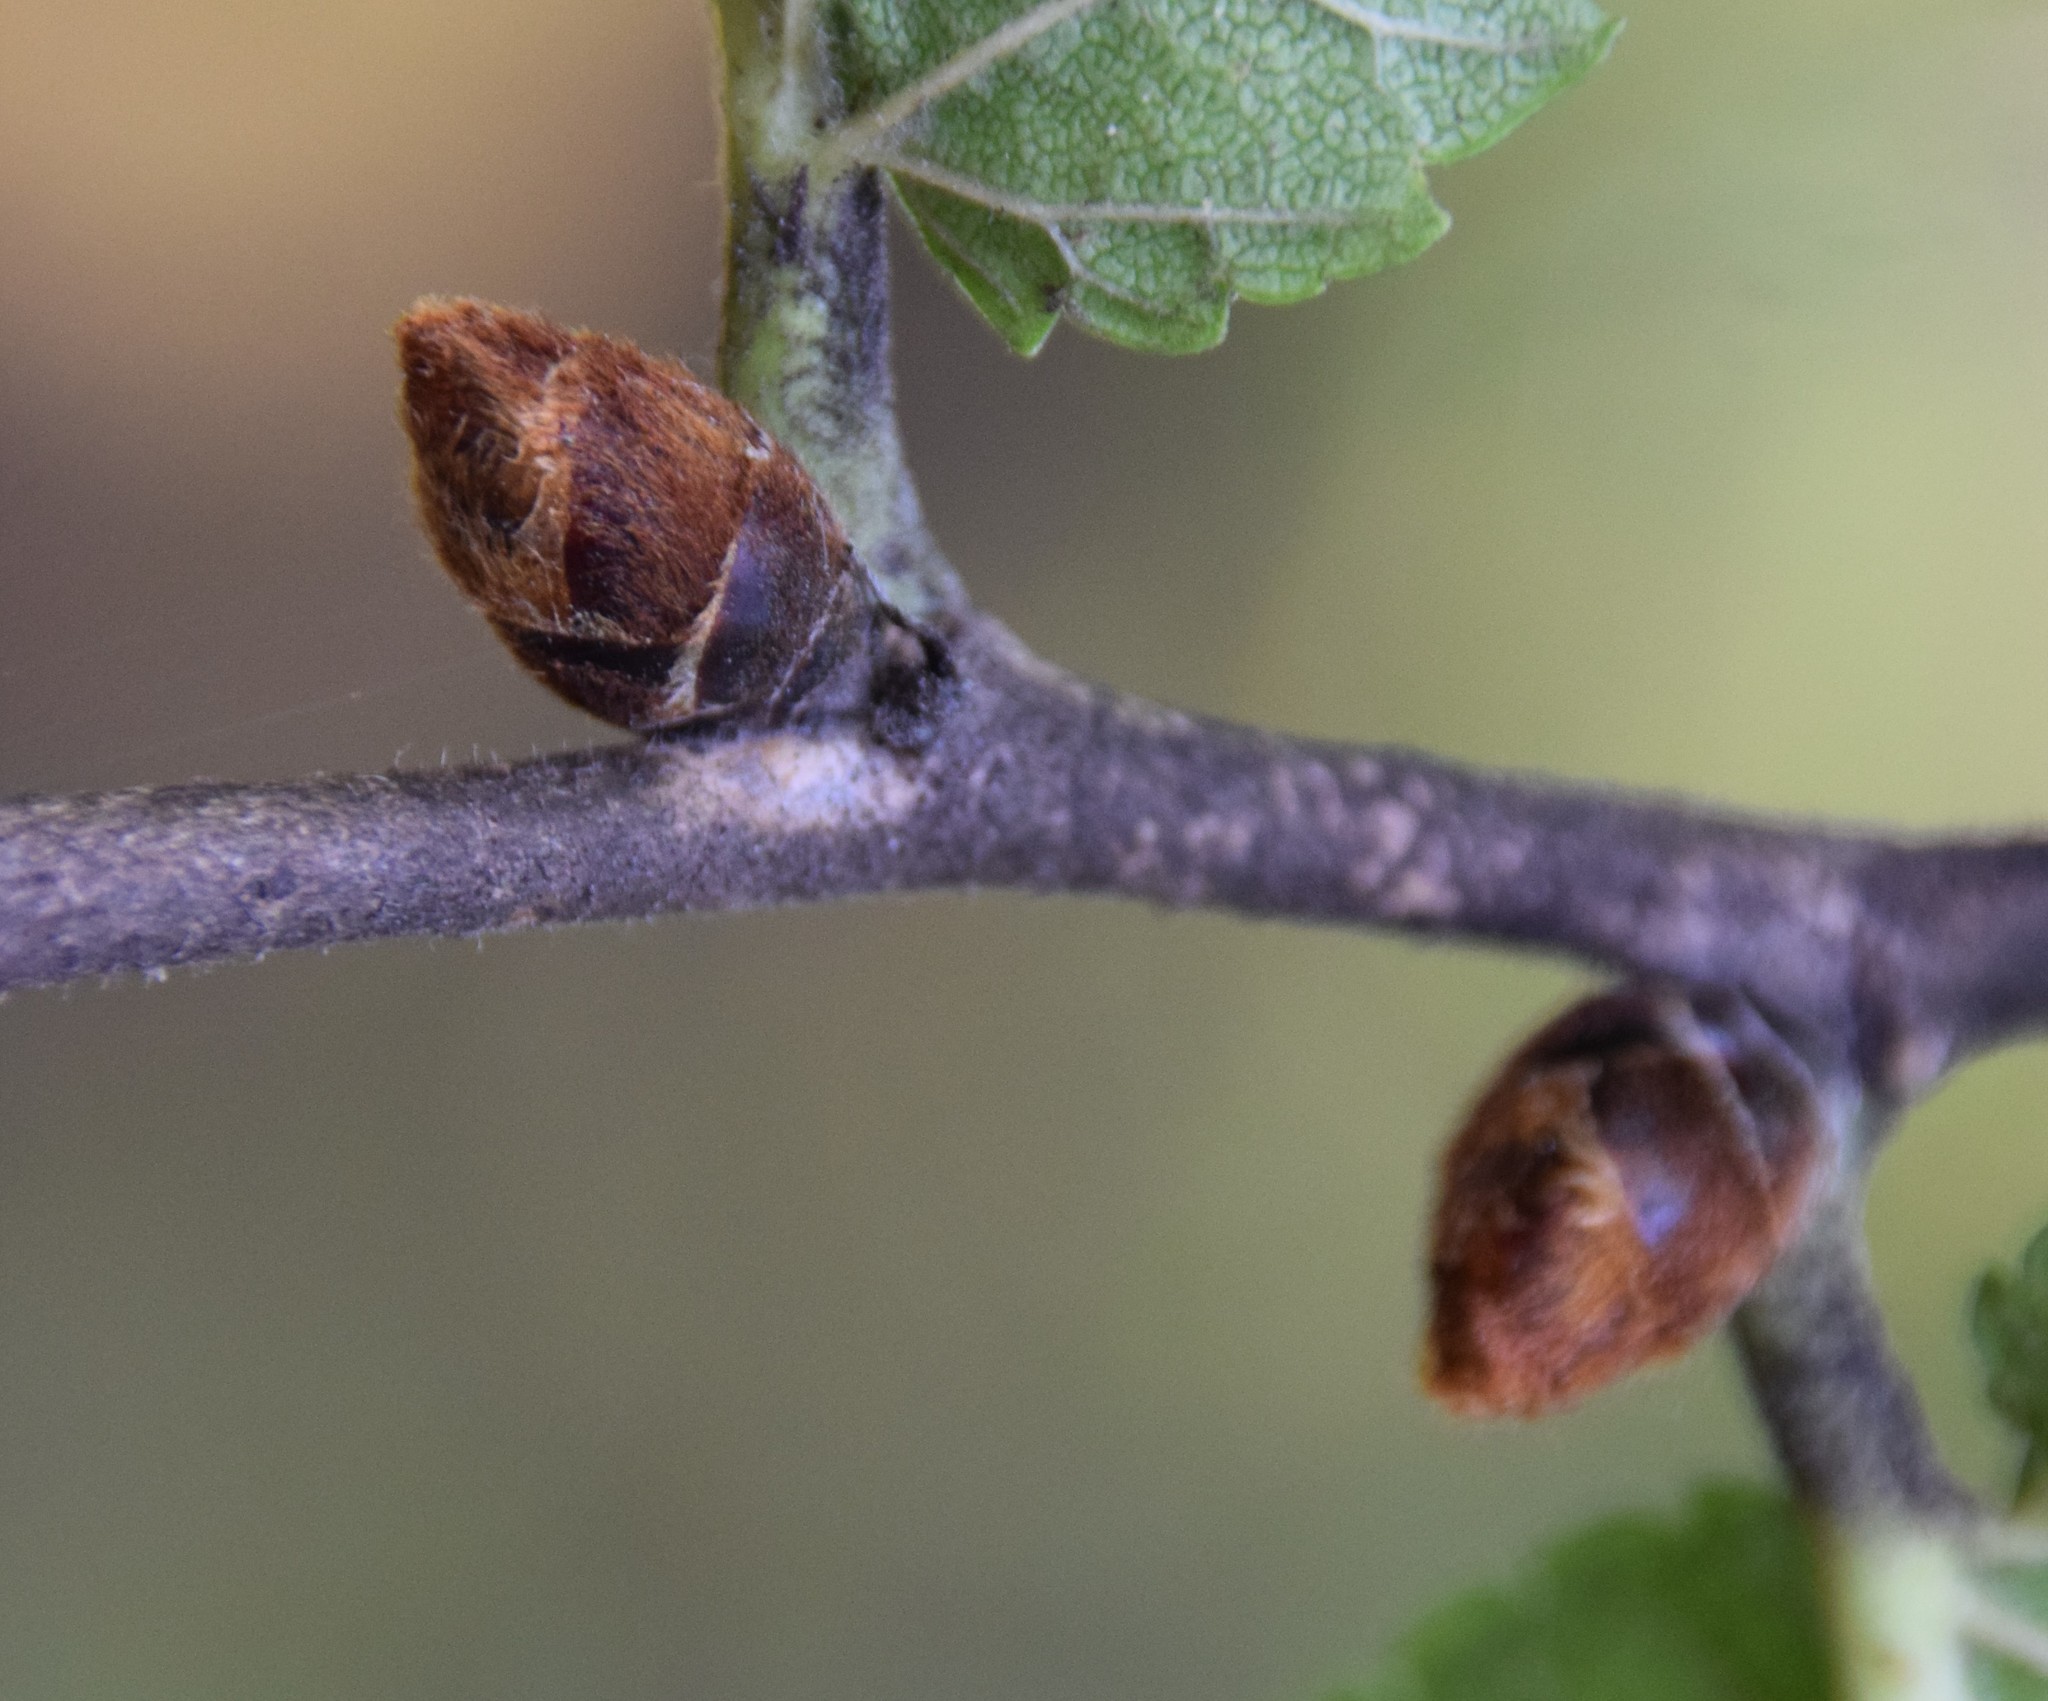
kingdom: Plantae
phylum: Tracheophyta
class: Magnoliopsida
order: Rosales
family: Ulmaceae
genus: Ulmus
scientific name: Ulmus rubra
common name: Slippery elm
